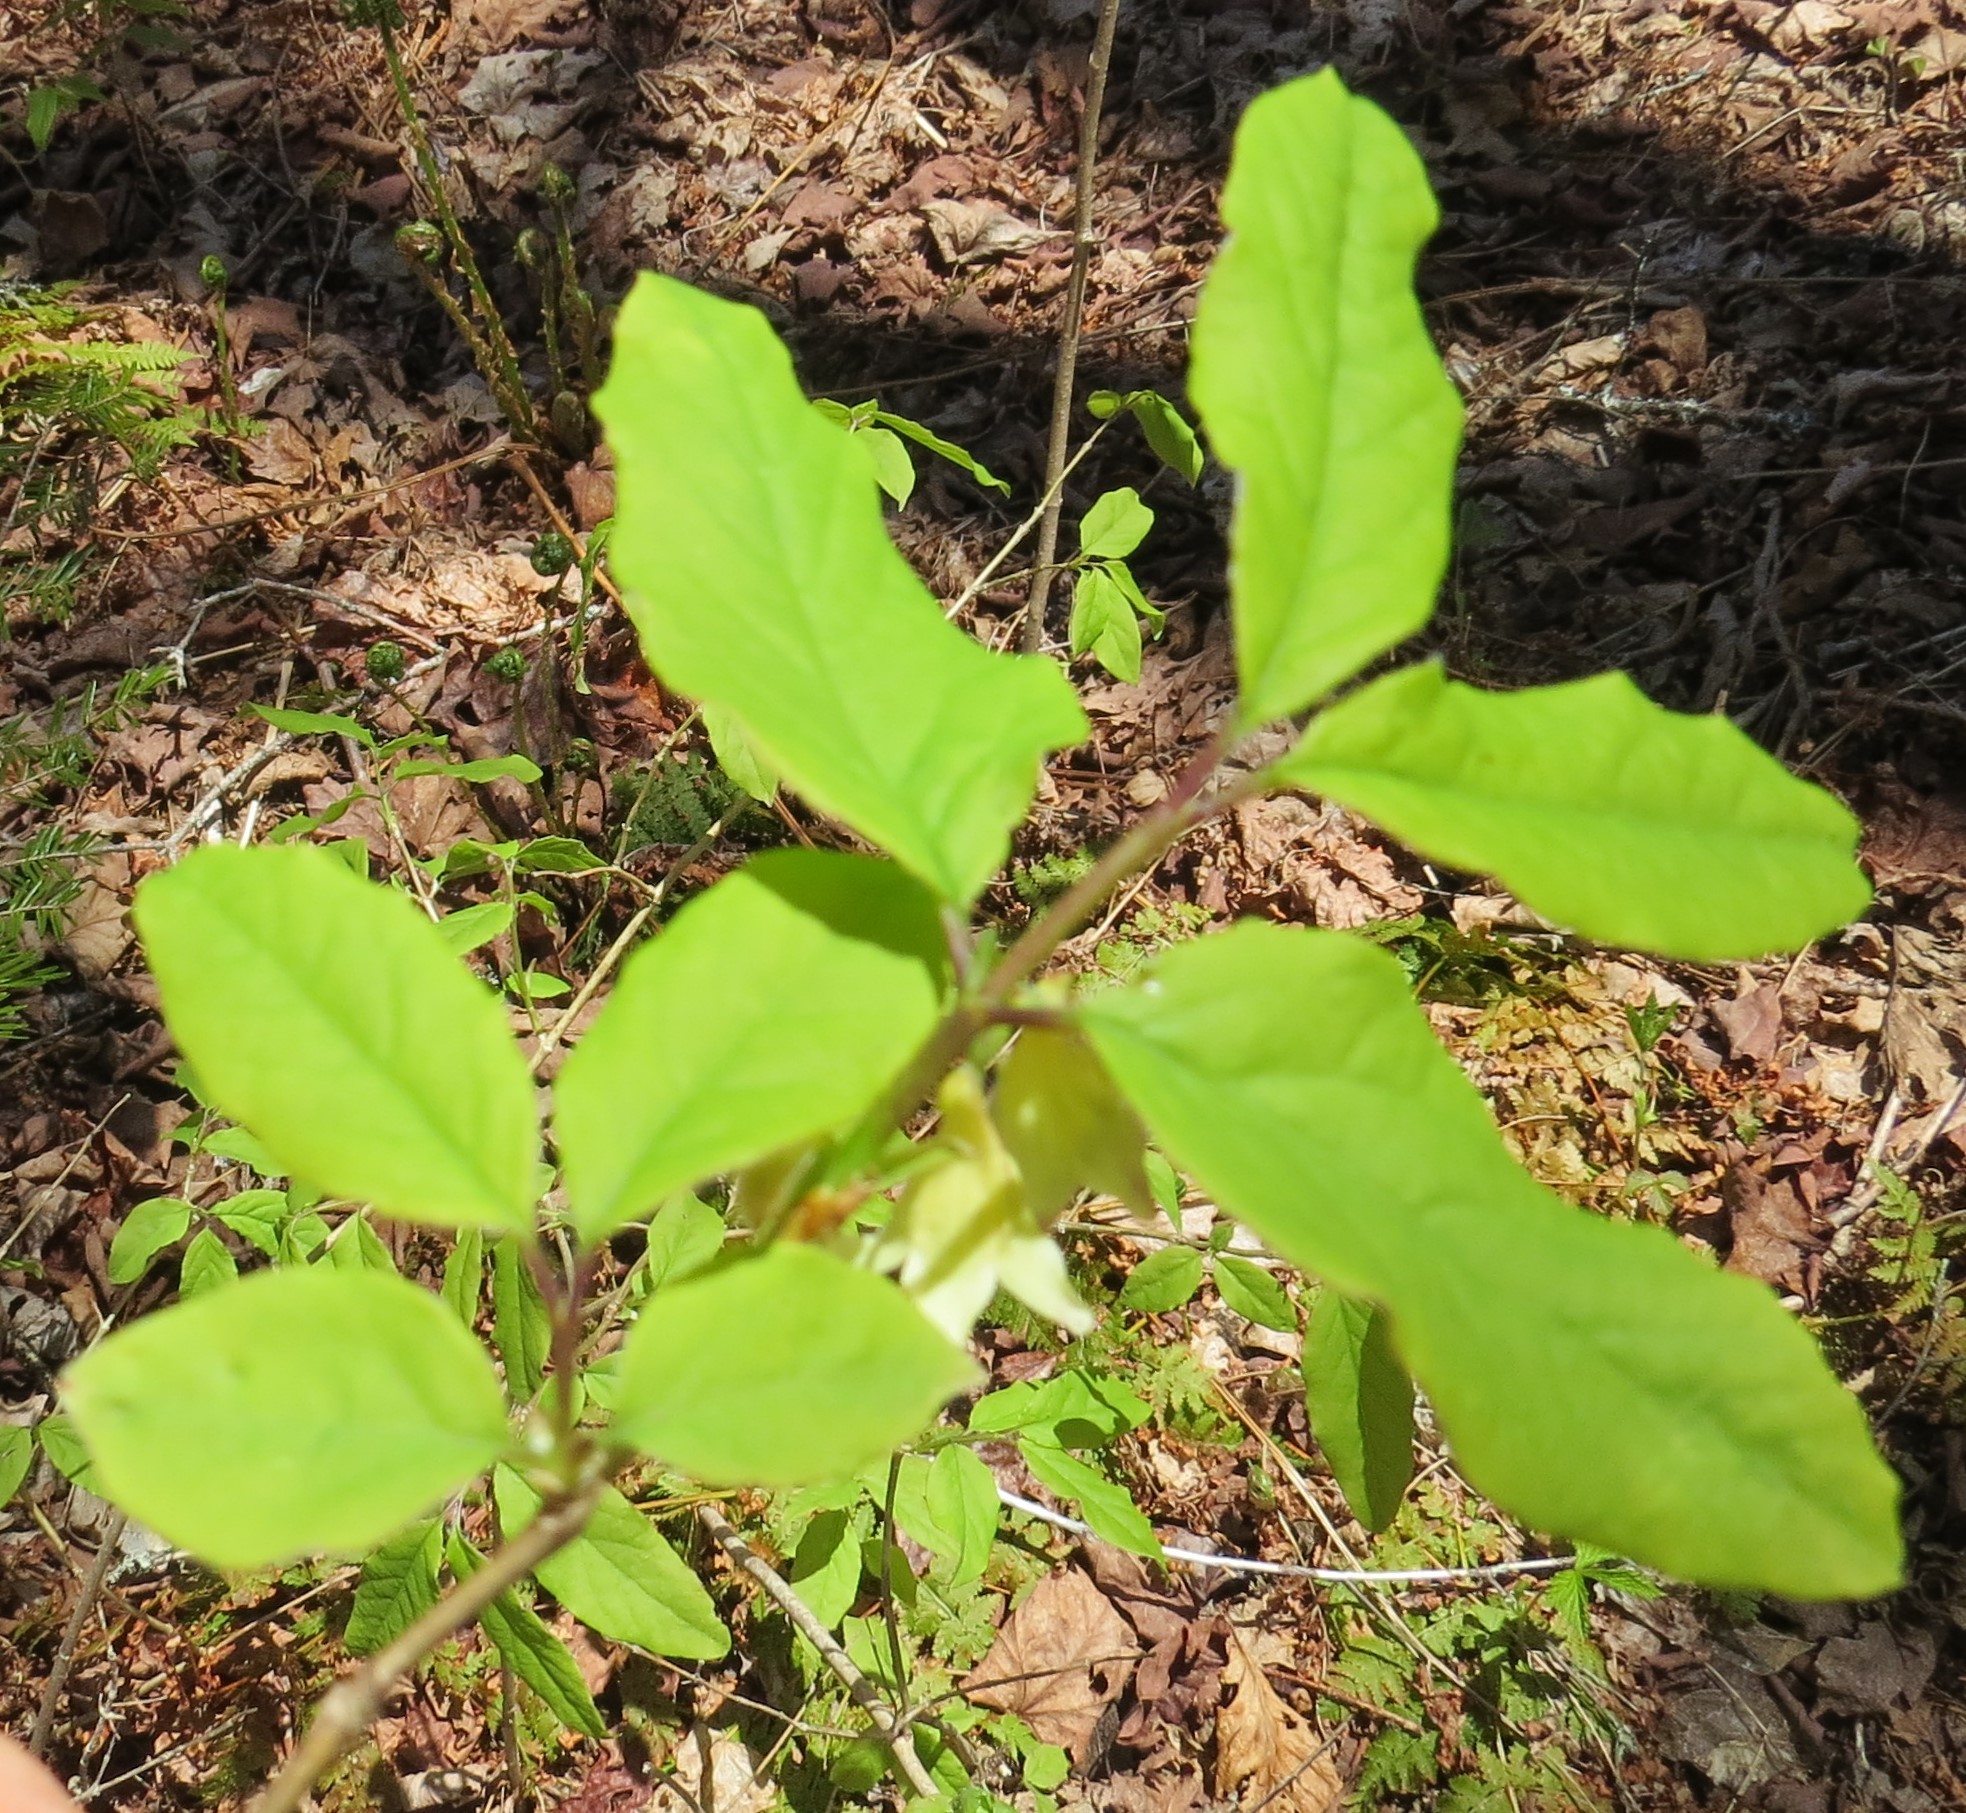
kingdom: Plantae
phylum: Tracheophyta
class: Magnoliopsida
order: Dipsacales
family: Caprifoliaceae
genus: Lonicera
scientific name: Lonicera canadensis
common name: American fly-honeysuckle
